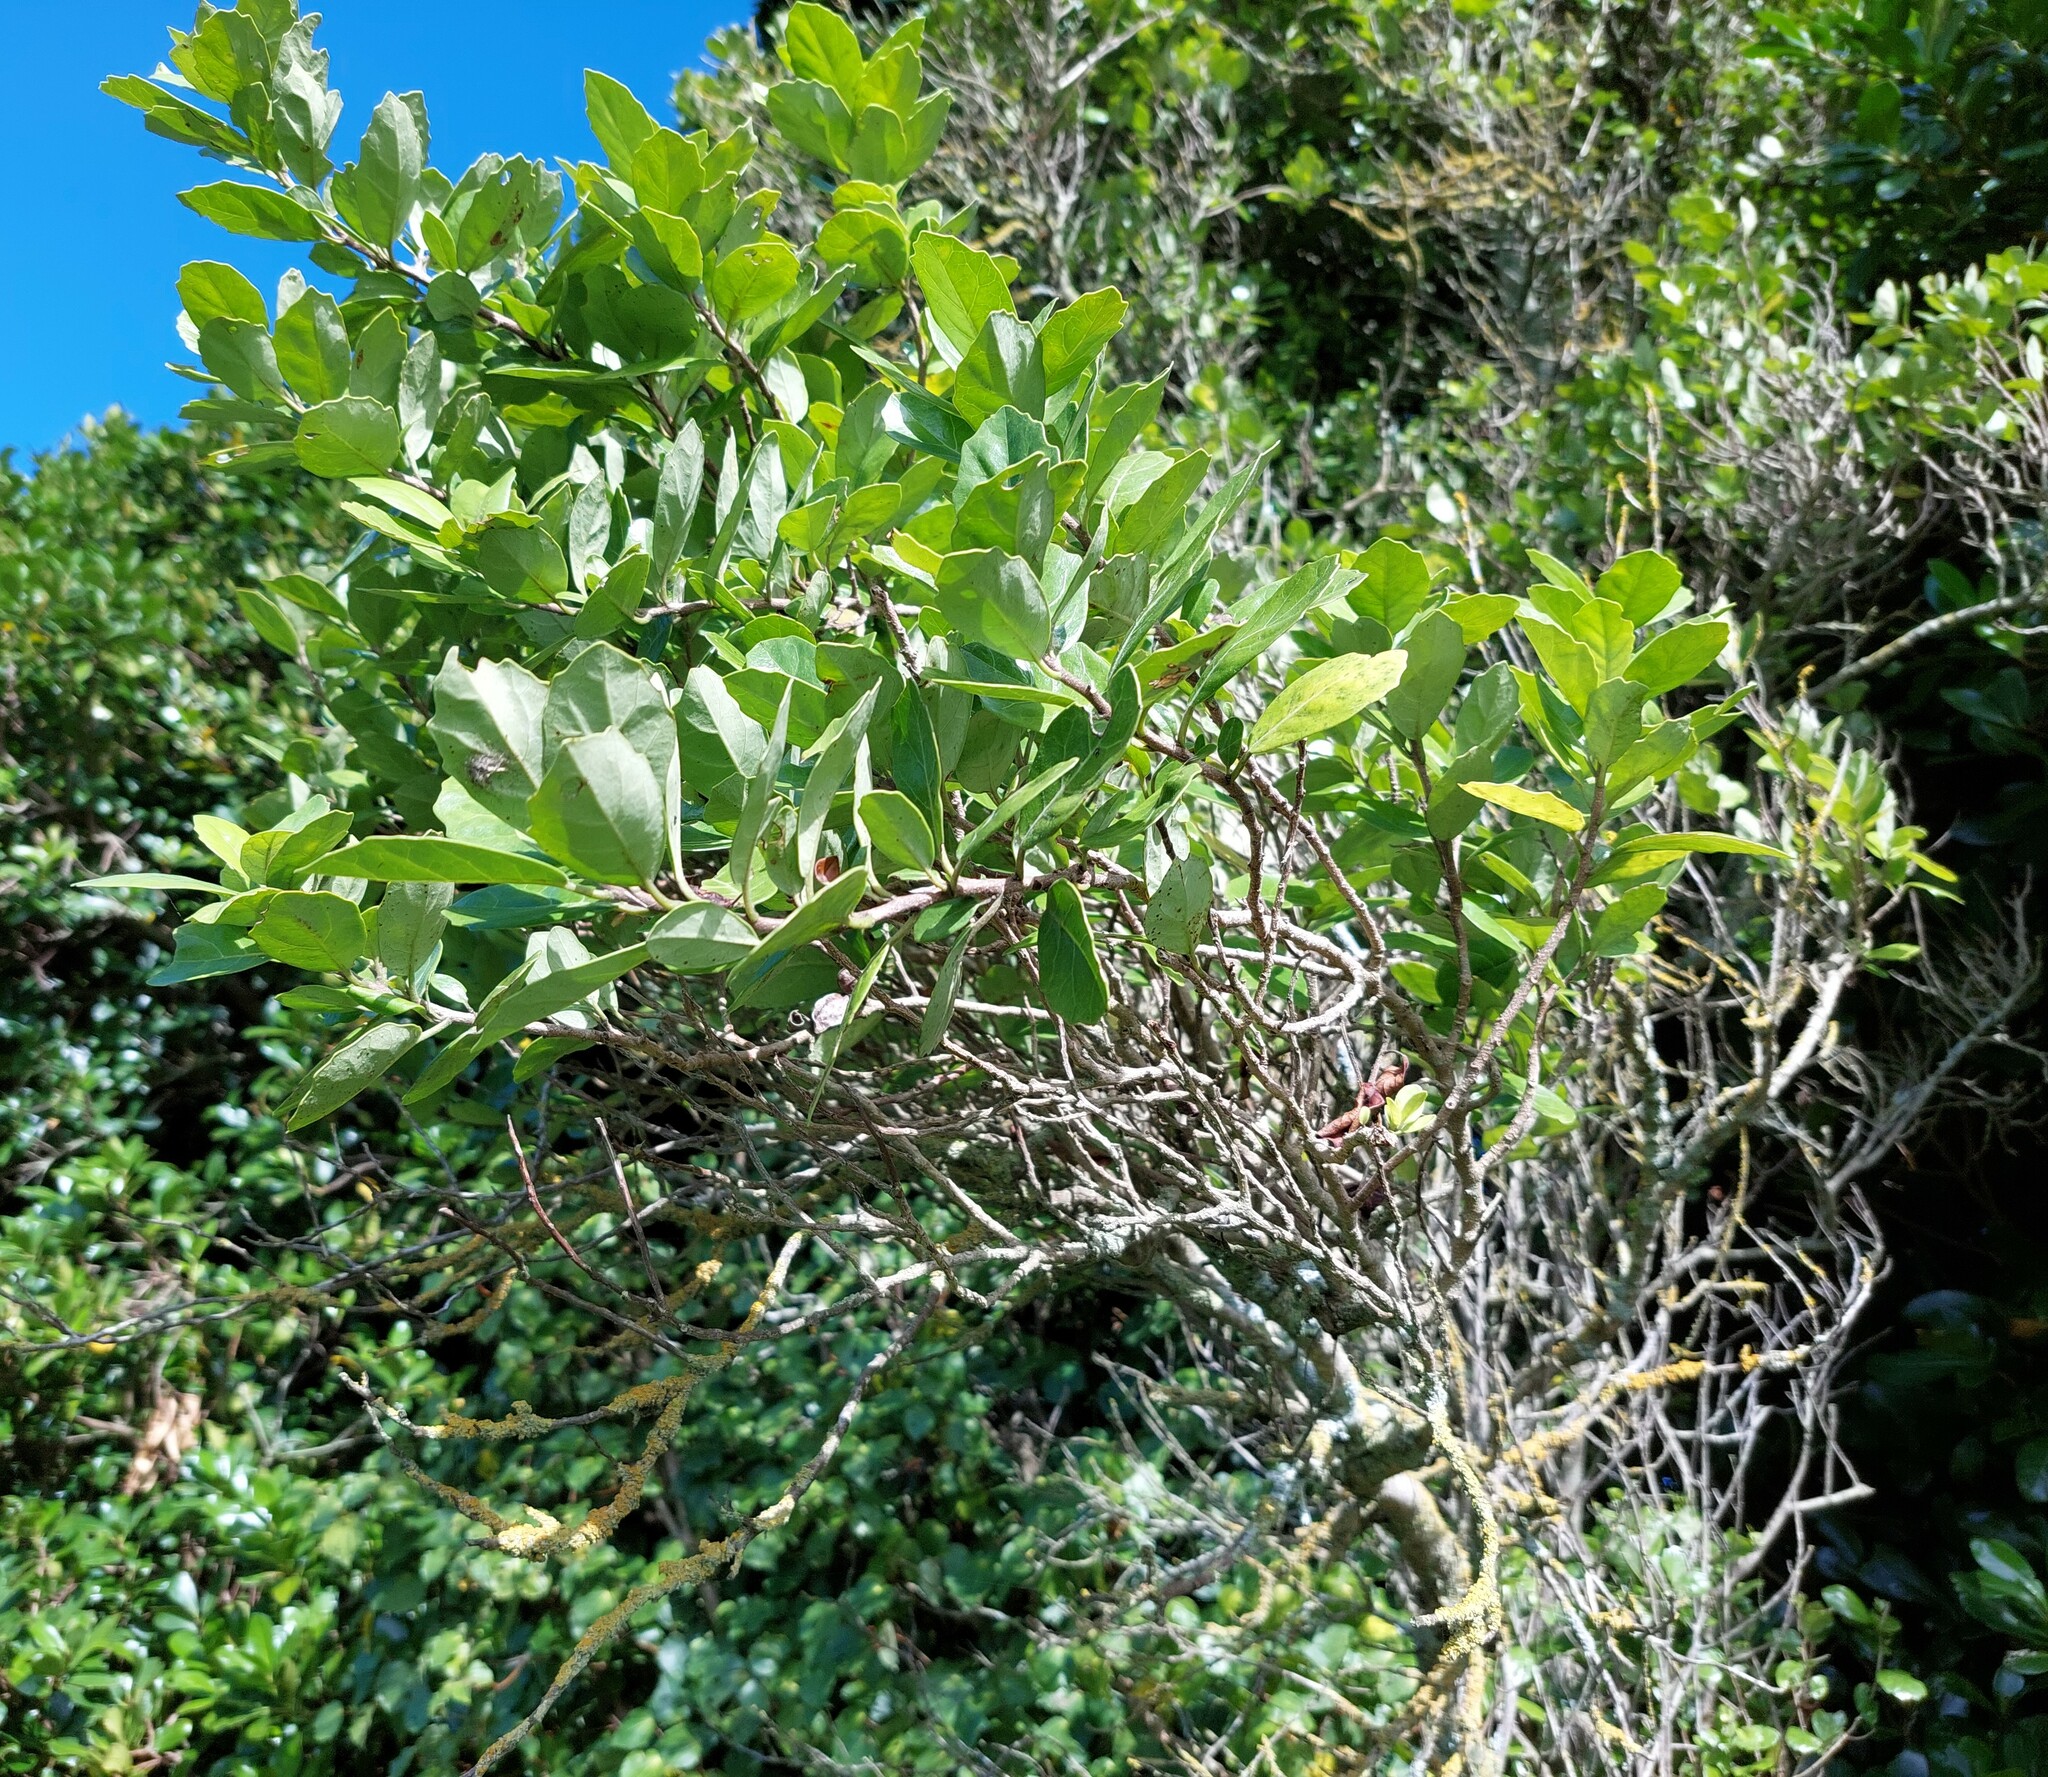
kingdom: Plantae
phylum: Tracheophyta
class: Magnoliopsida
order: Apiales
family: Pennantiaceae
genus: Pennantia
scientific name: Pennantia corymbosa
